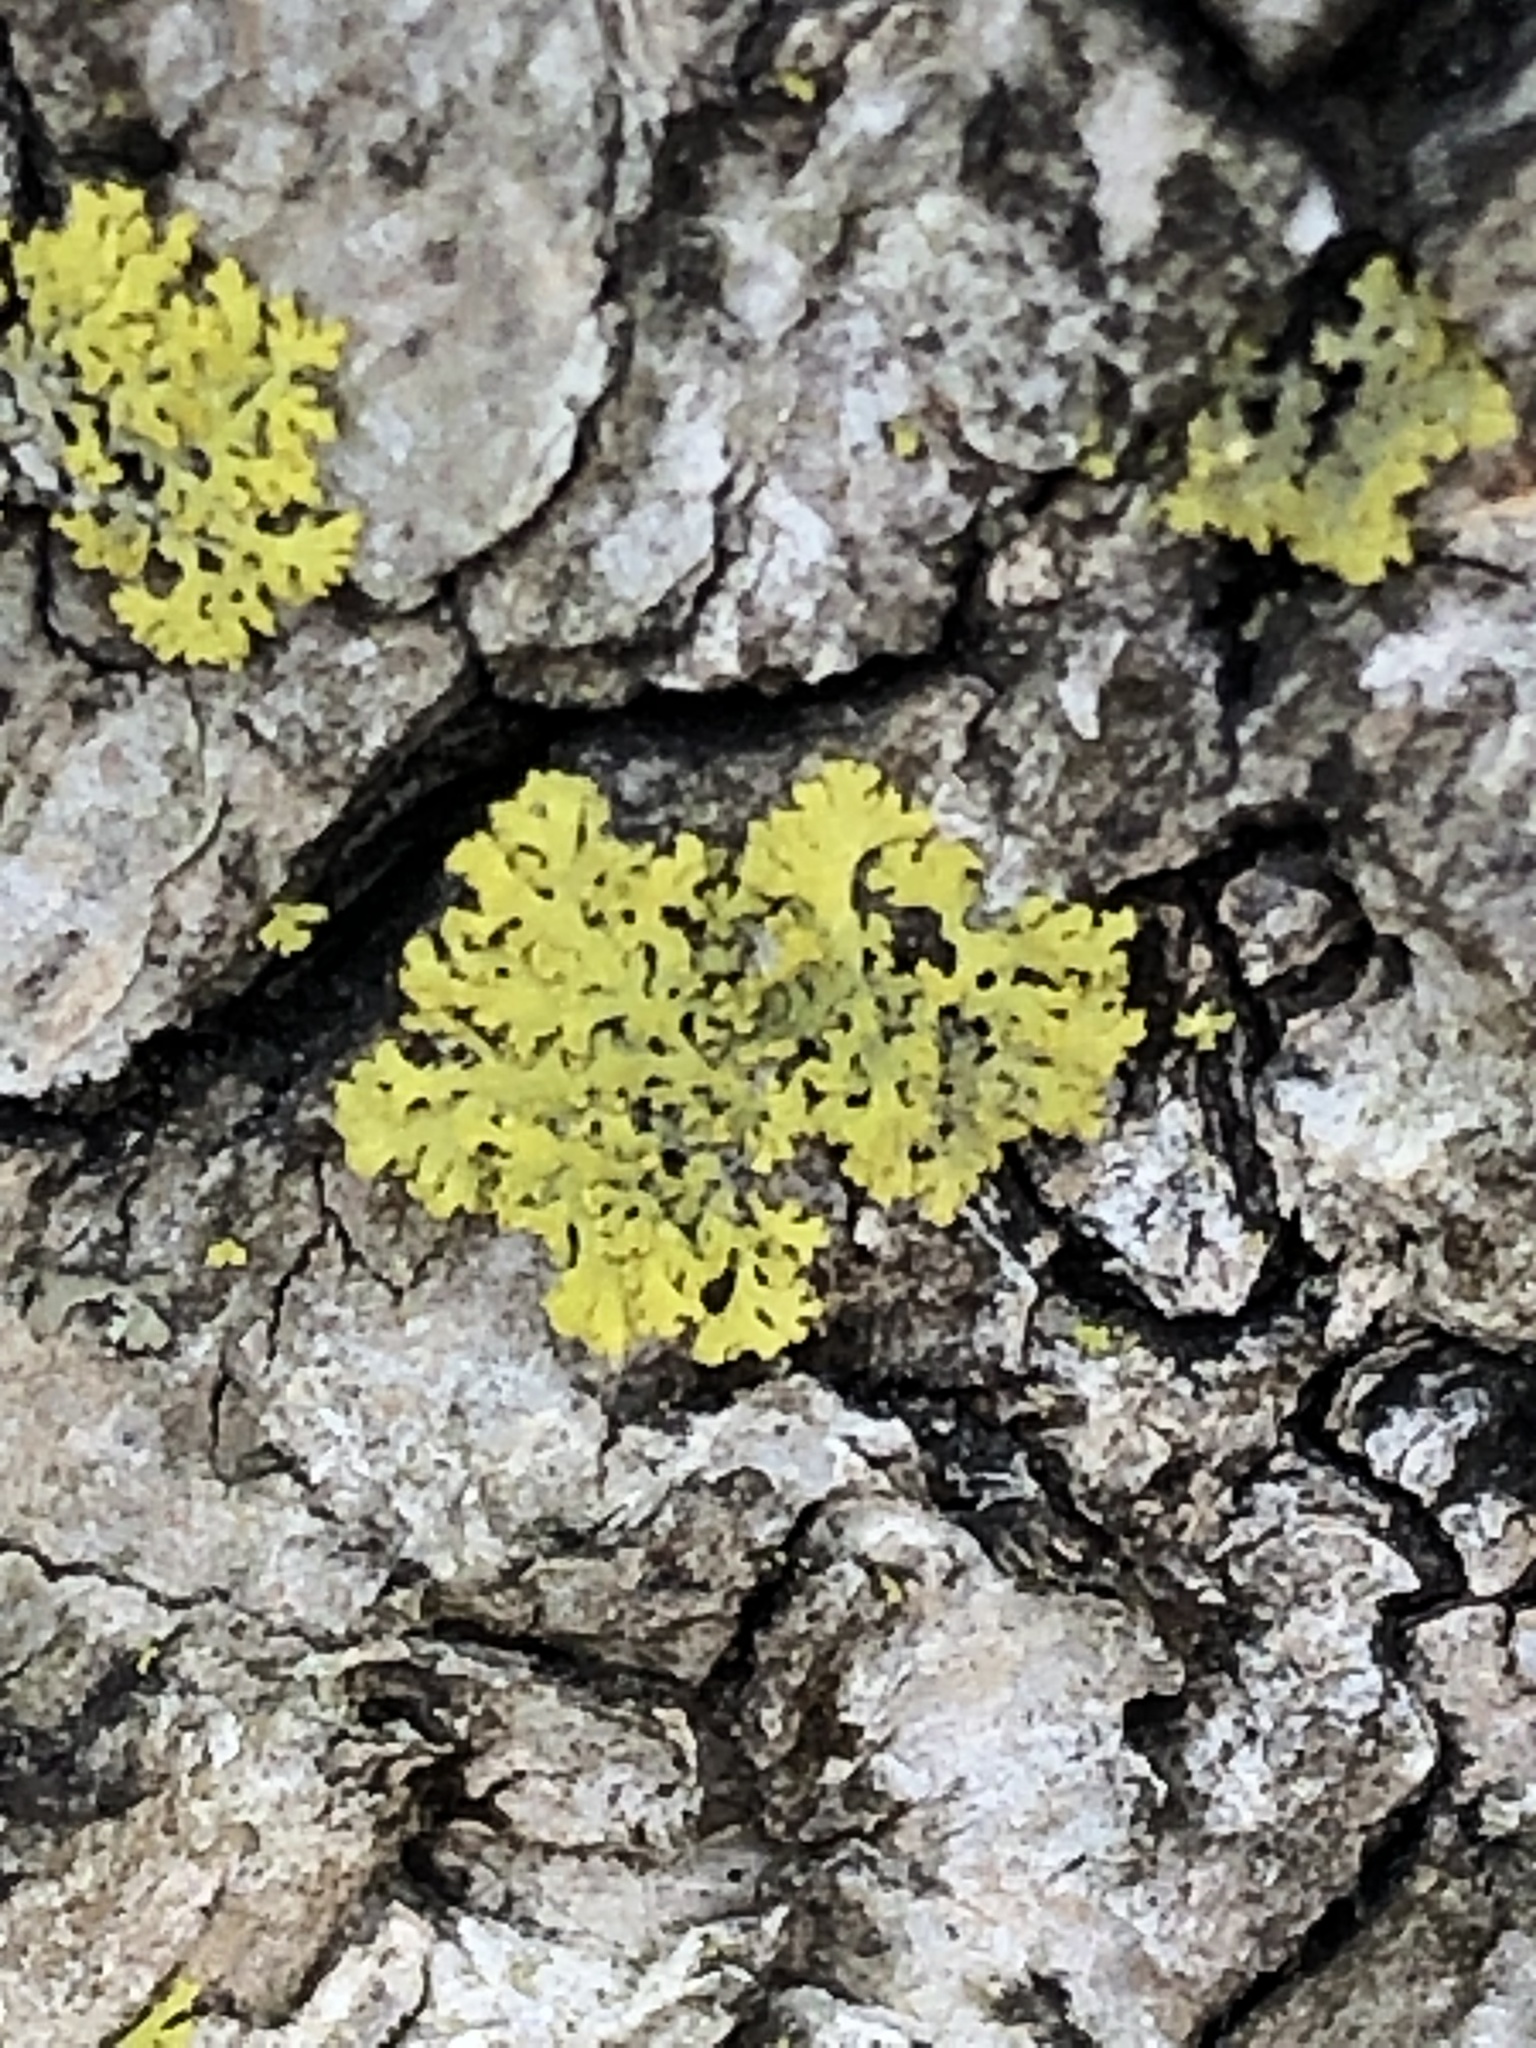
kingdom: Fungi
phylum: Ascomycota
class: Candelariomycetes
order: Candelariales
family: Candelariaceae
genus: Candelaria
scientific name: Candelaria concolor
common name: Candleflame lichen
